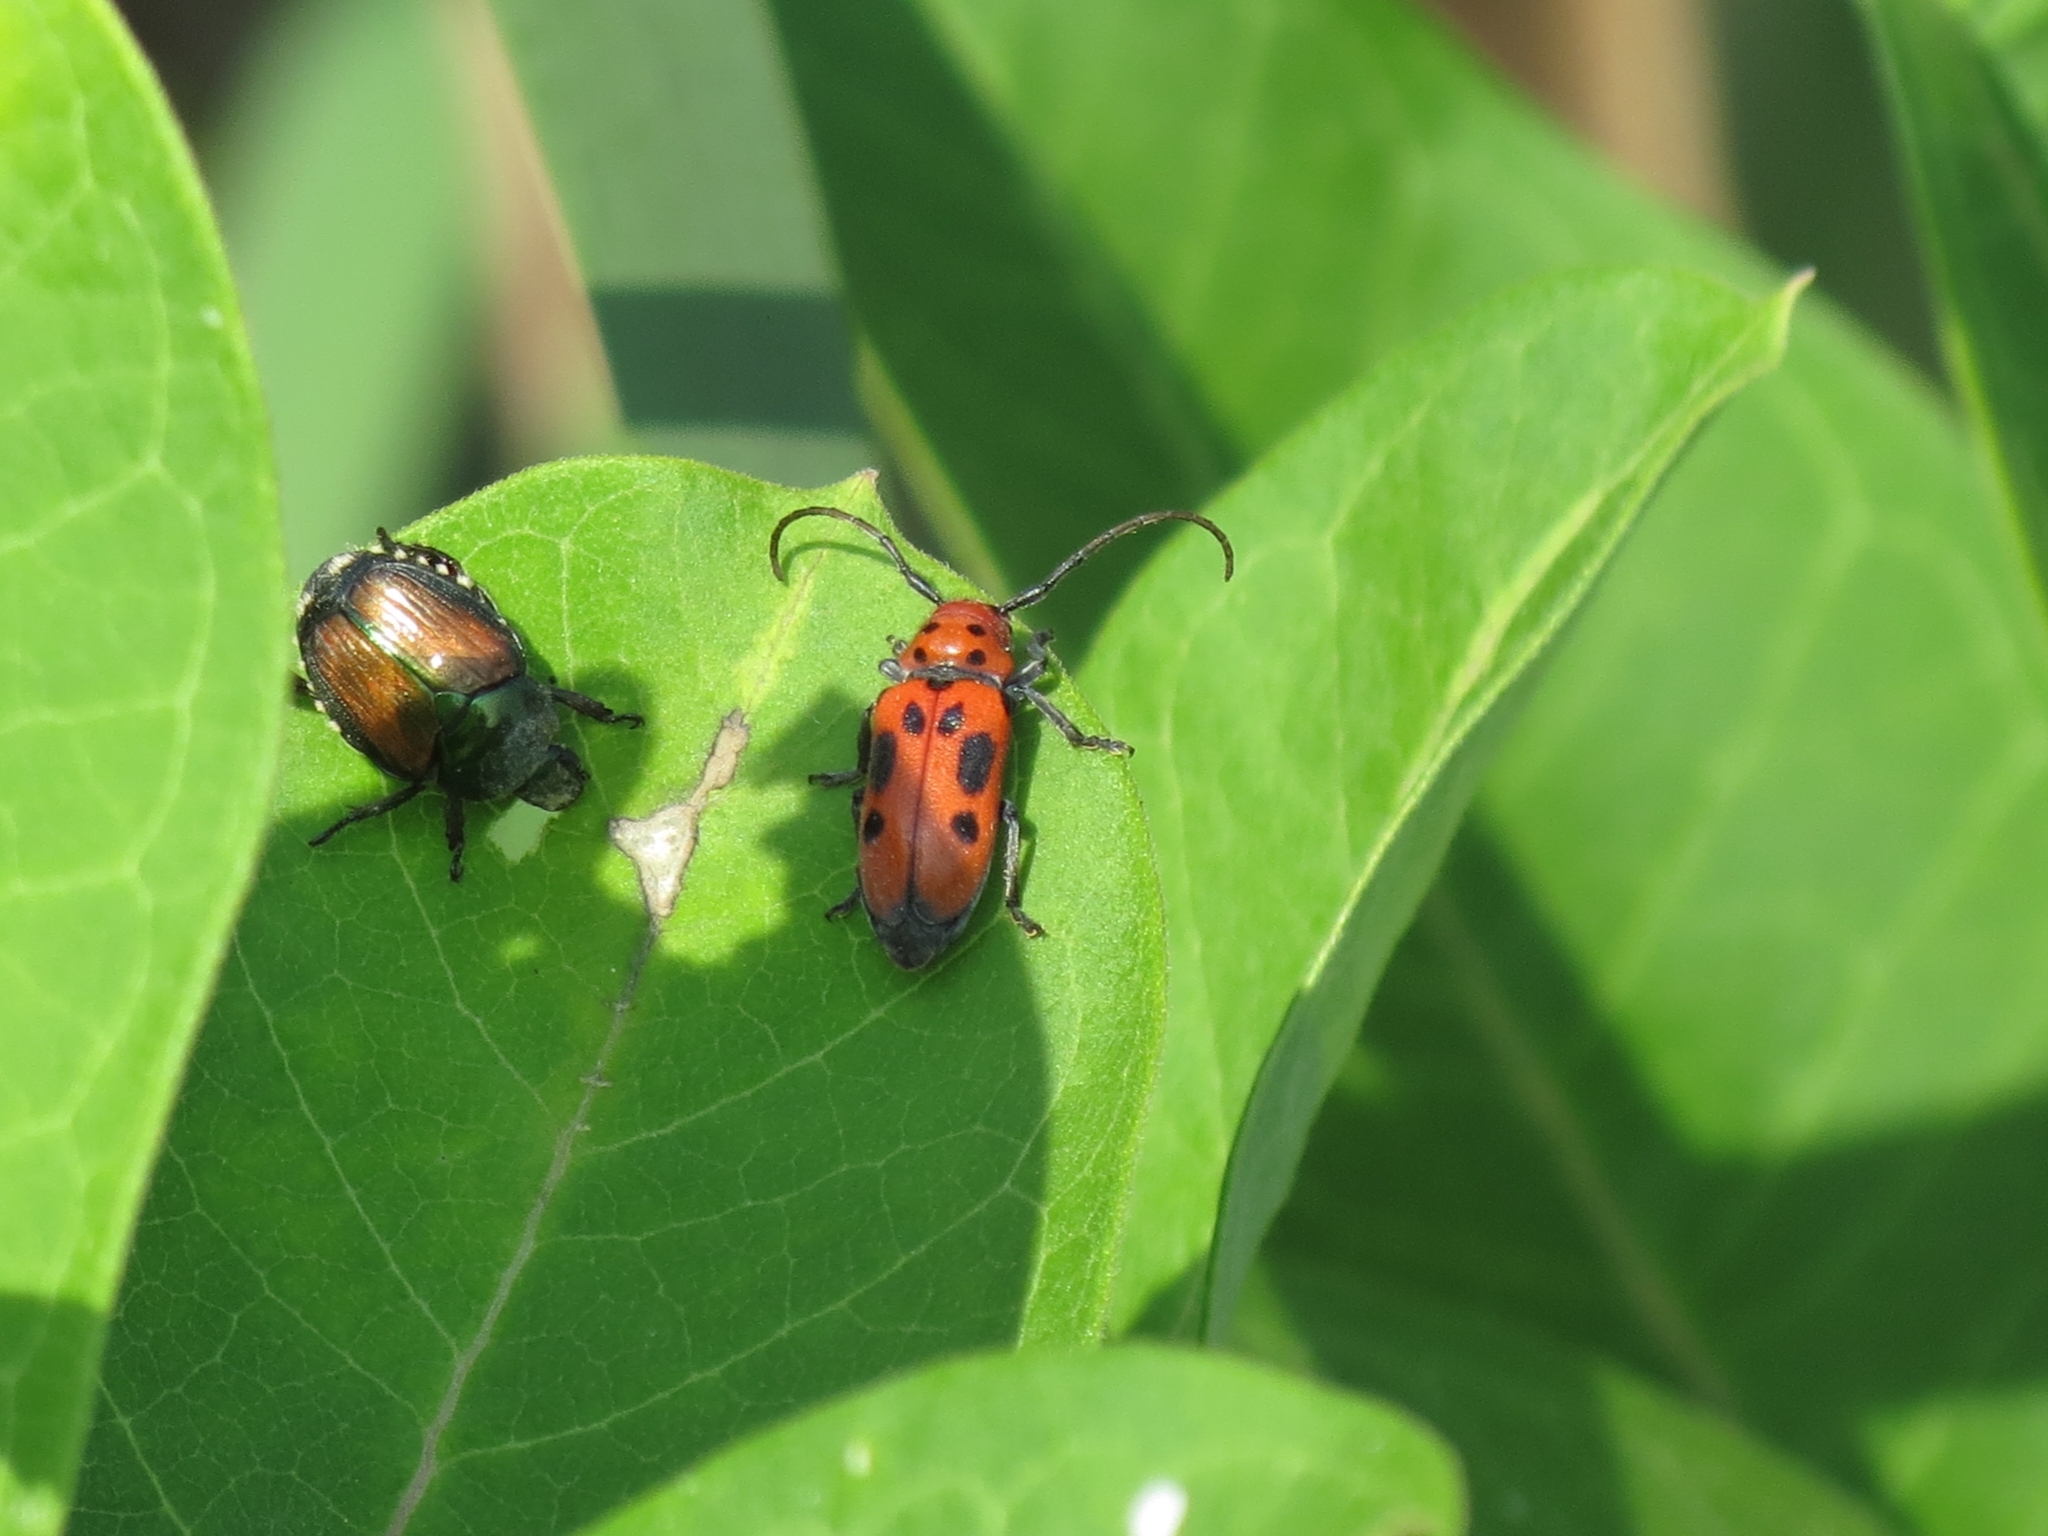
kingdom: Animalia
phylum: Arthropoda
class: Insecta
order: Coleoptera
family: Cerambycidae
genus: Tetraopes
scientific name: Tetraopes tetrophthalmus
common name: Red milkweed beetle
